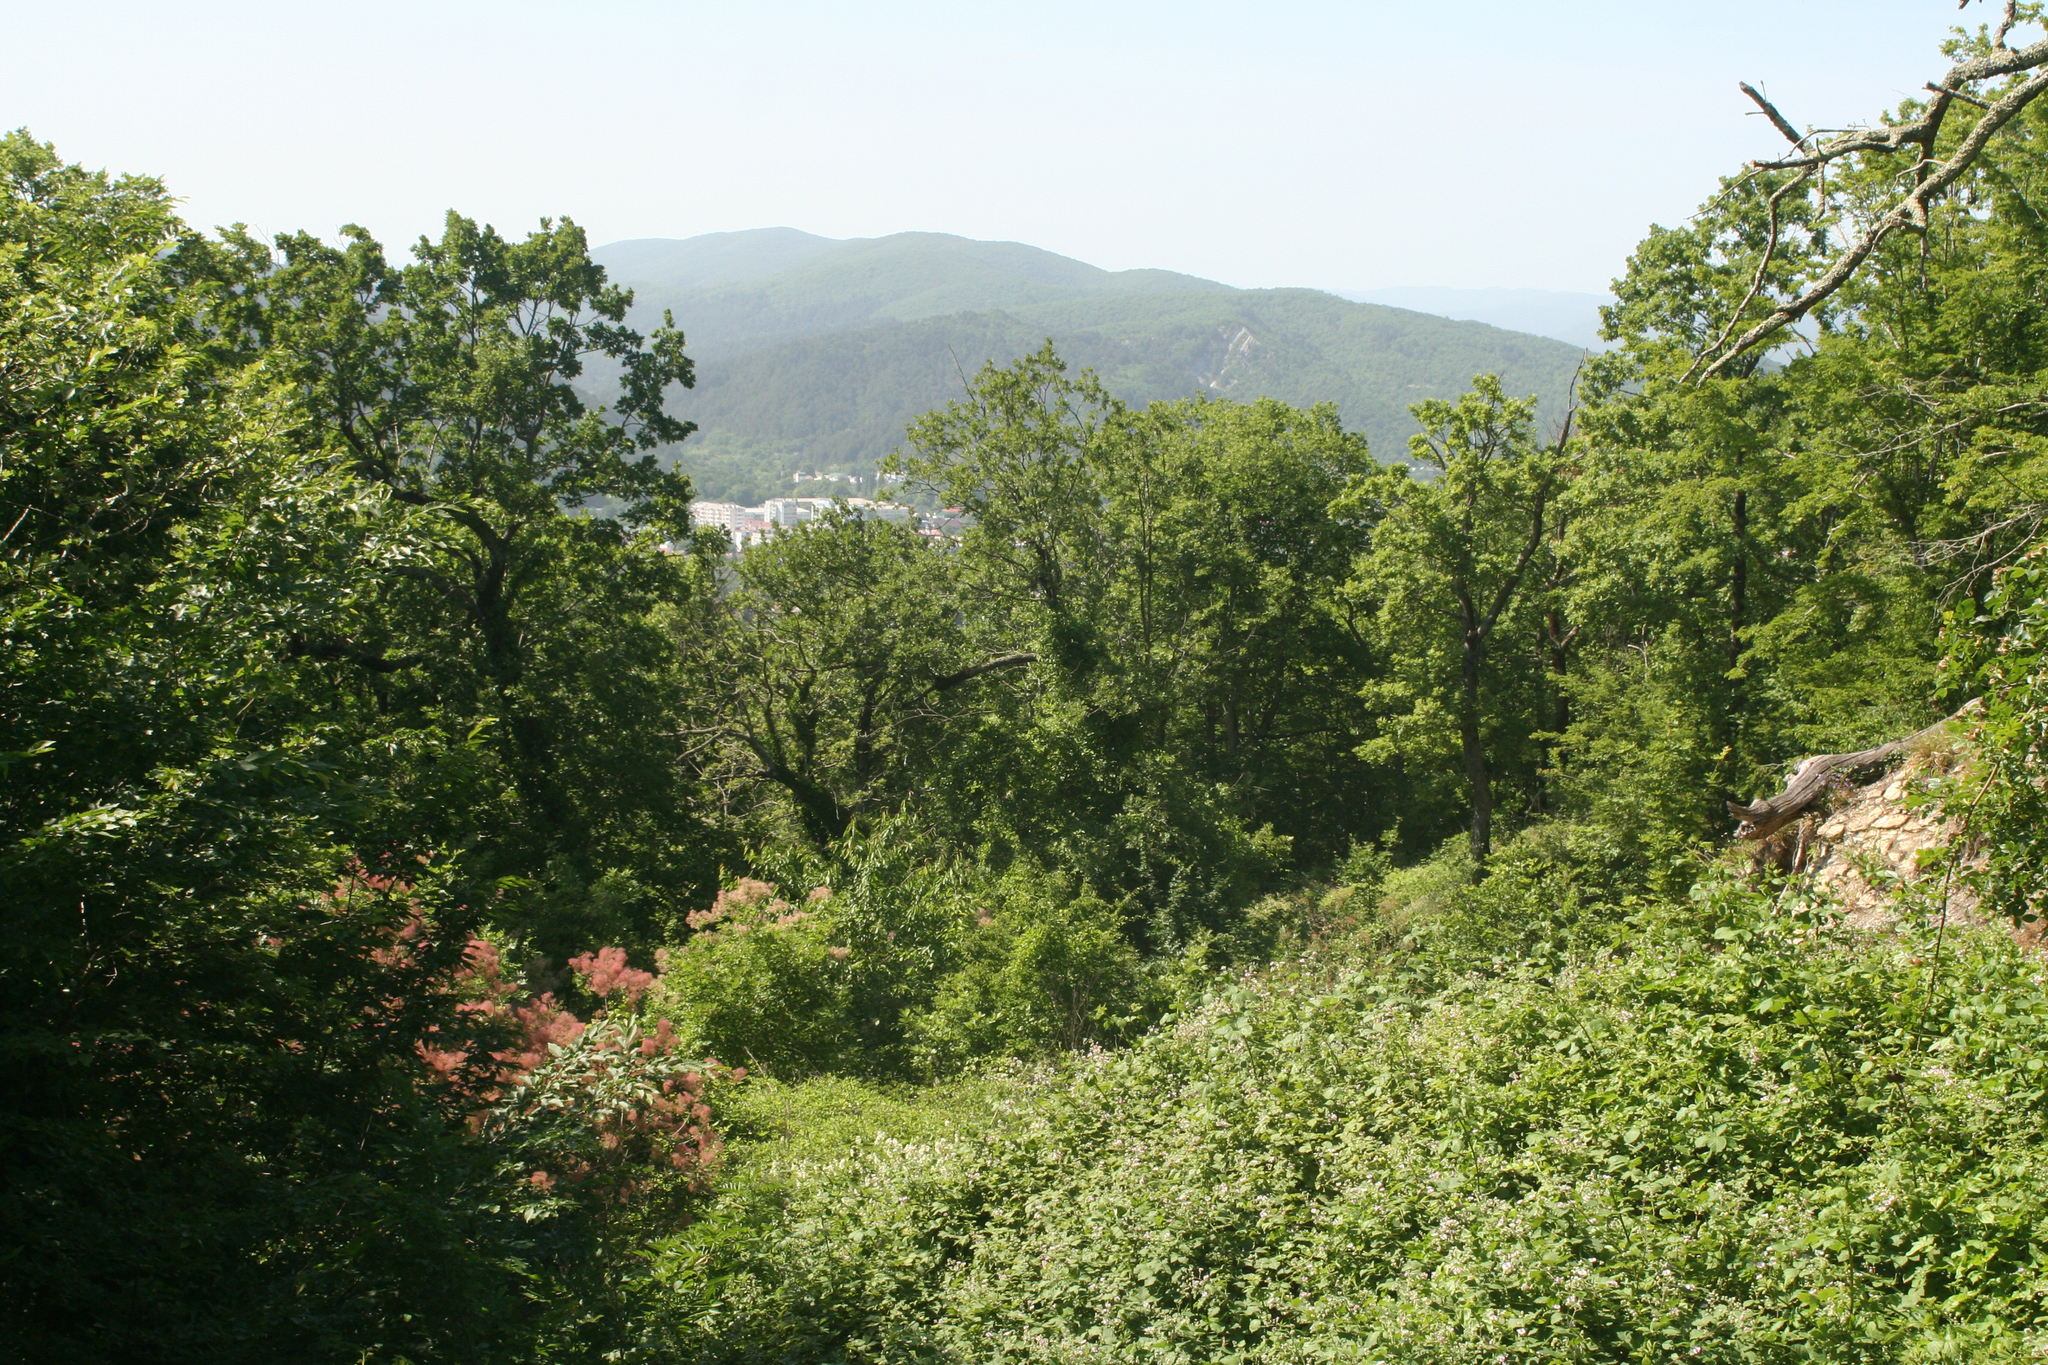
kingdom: Plantae
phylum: Tracheophyta
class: Magnoliopsida
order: Sapindales
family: Anacardiaceae
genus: Cotinus
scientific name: Cotinus coggygria
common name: Smoke-tree
